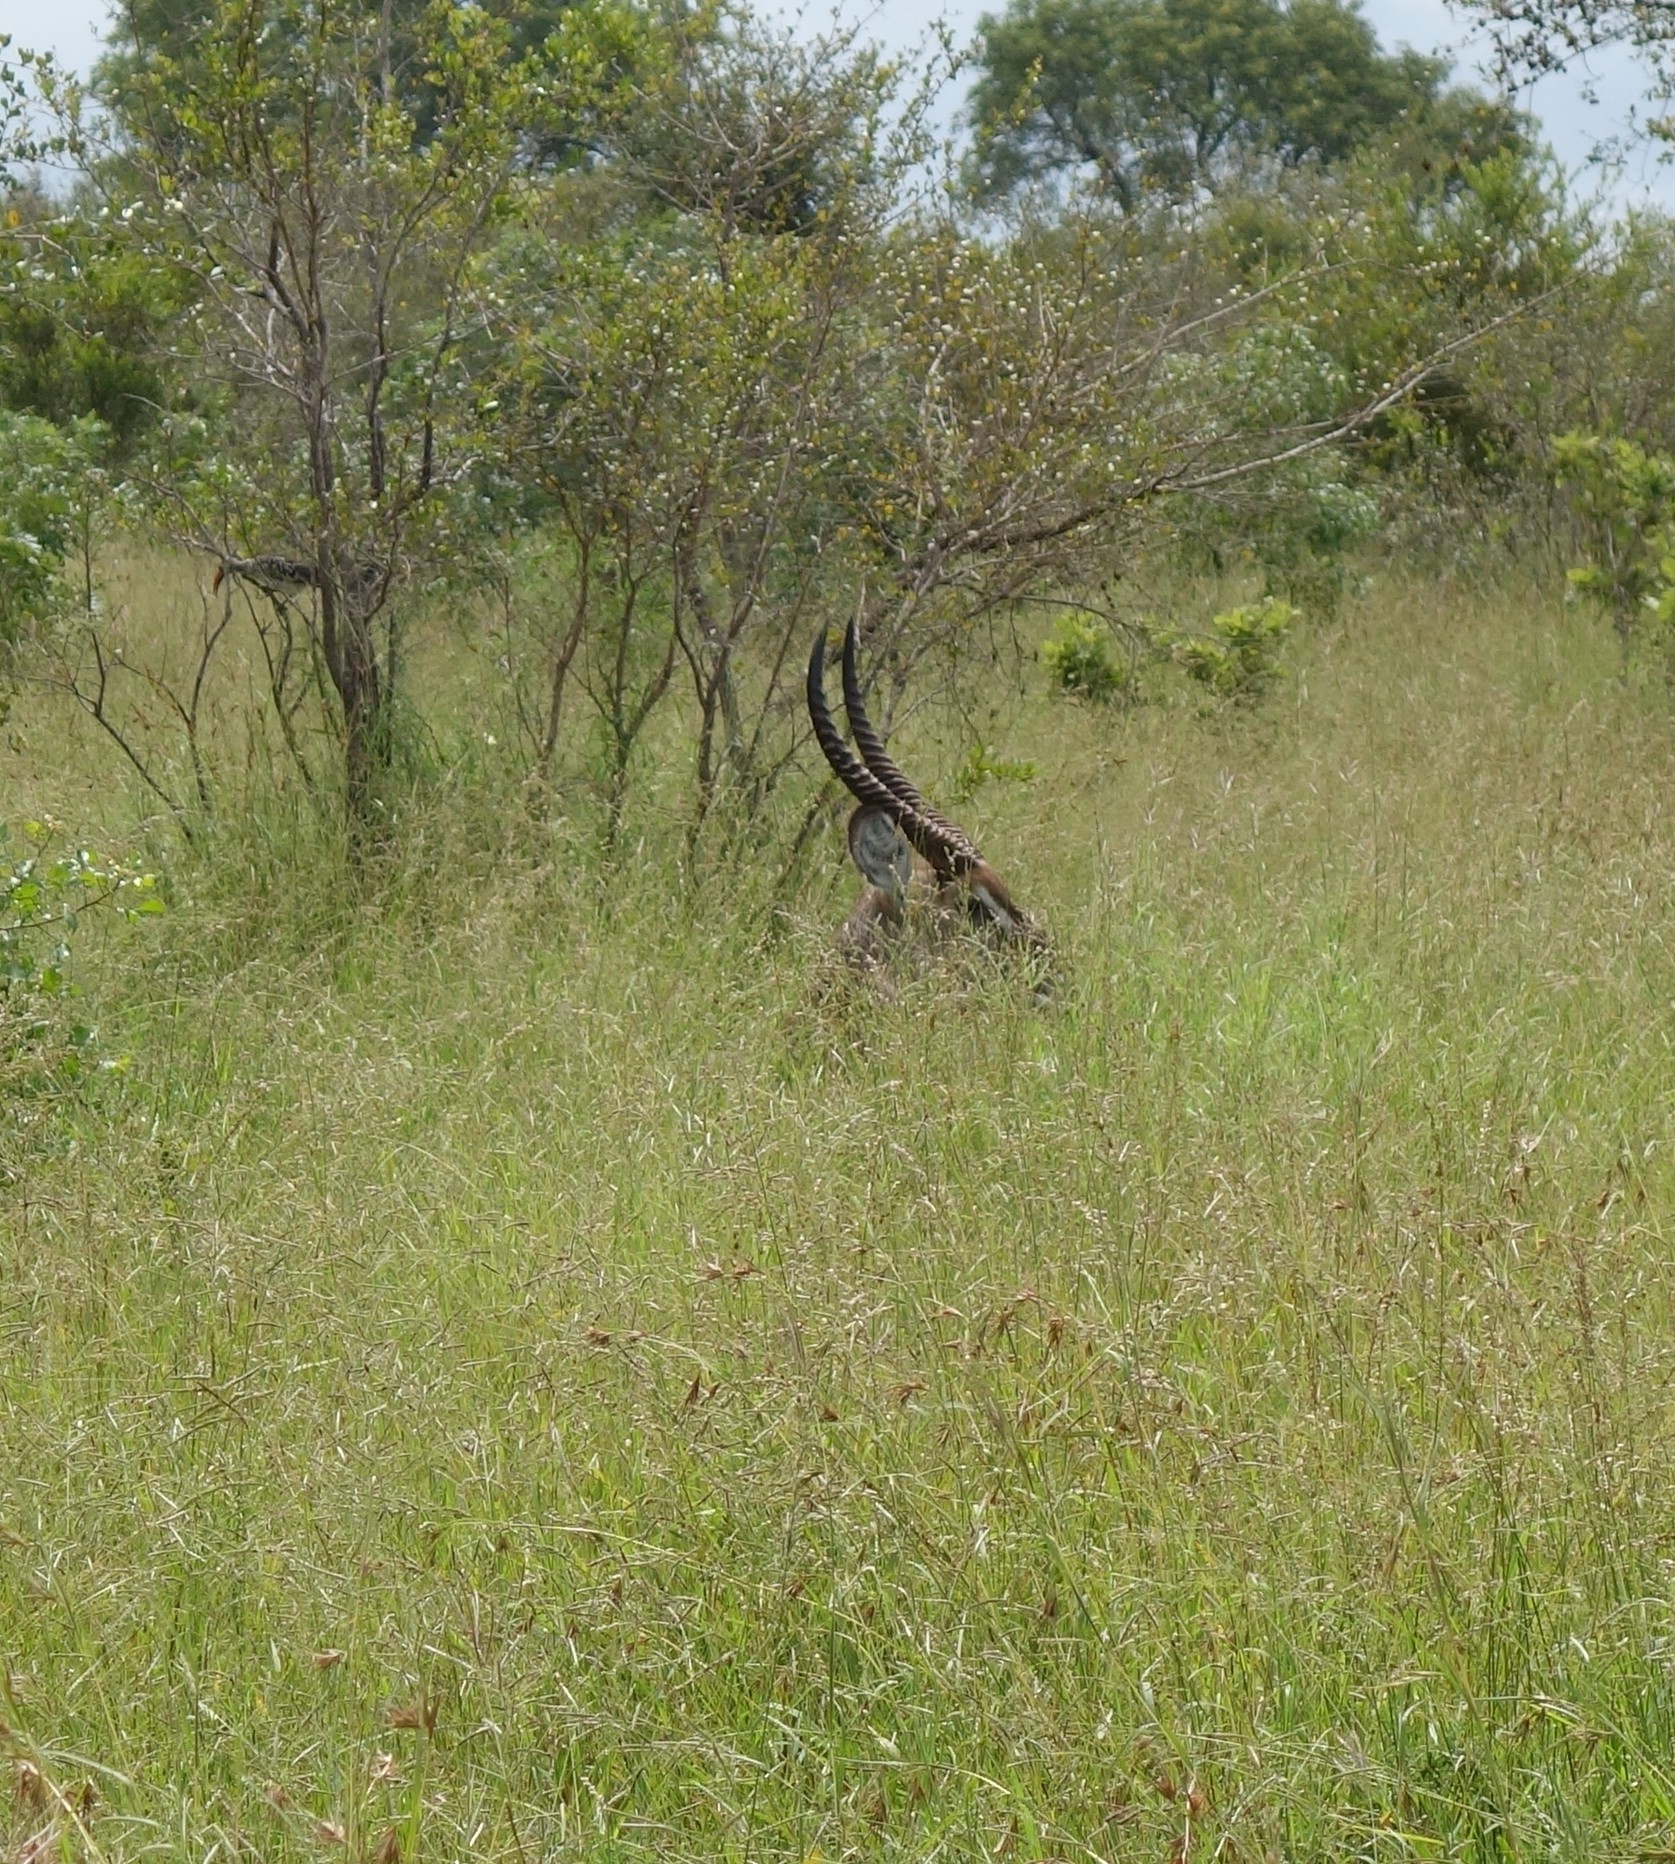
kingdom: Animalia
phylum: Chordata
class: Mammalia
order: Artiodactyla
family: Bovidae
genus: Kobus
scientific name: Kobus ellipsiprymnus
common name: Waterbuck
